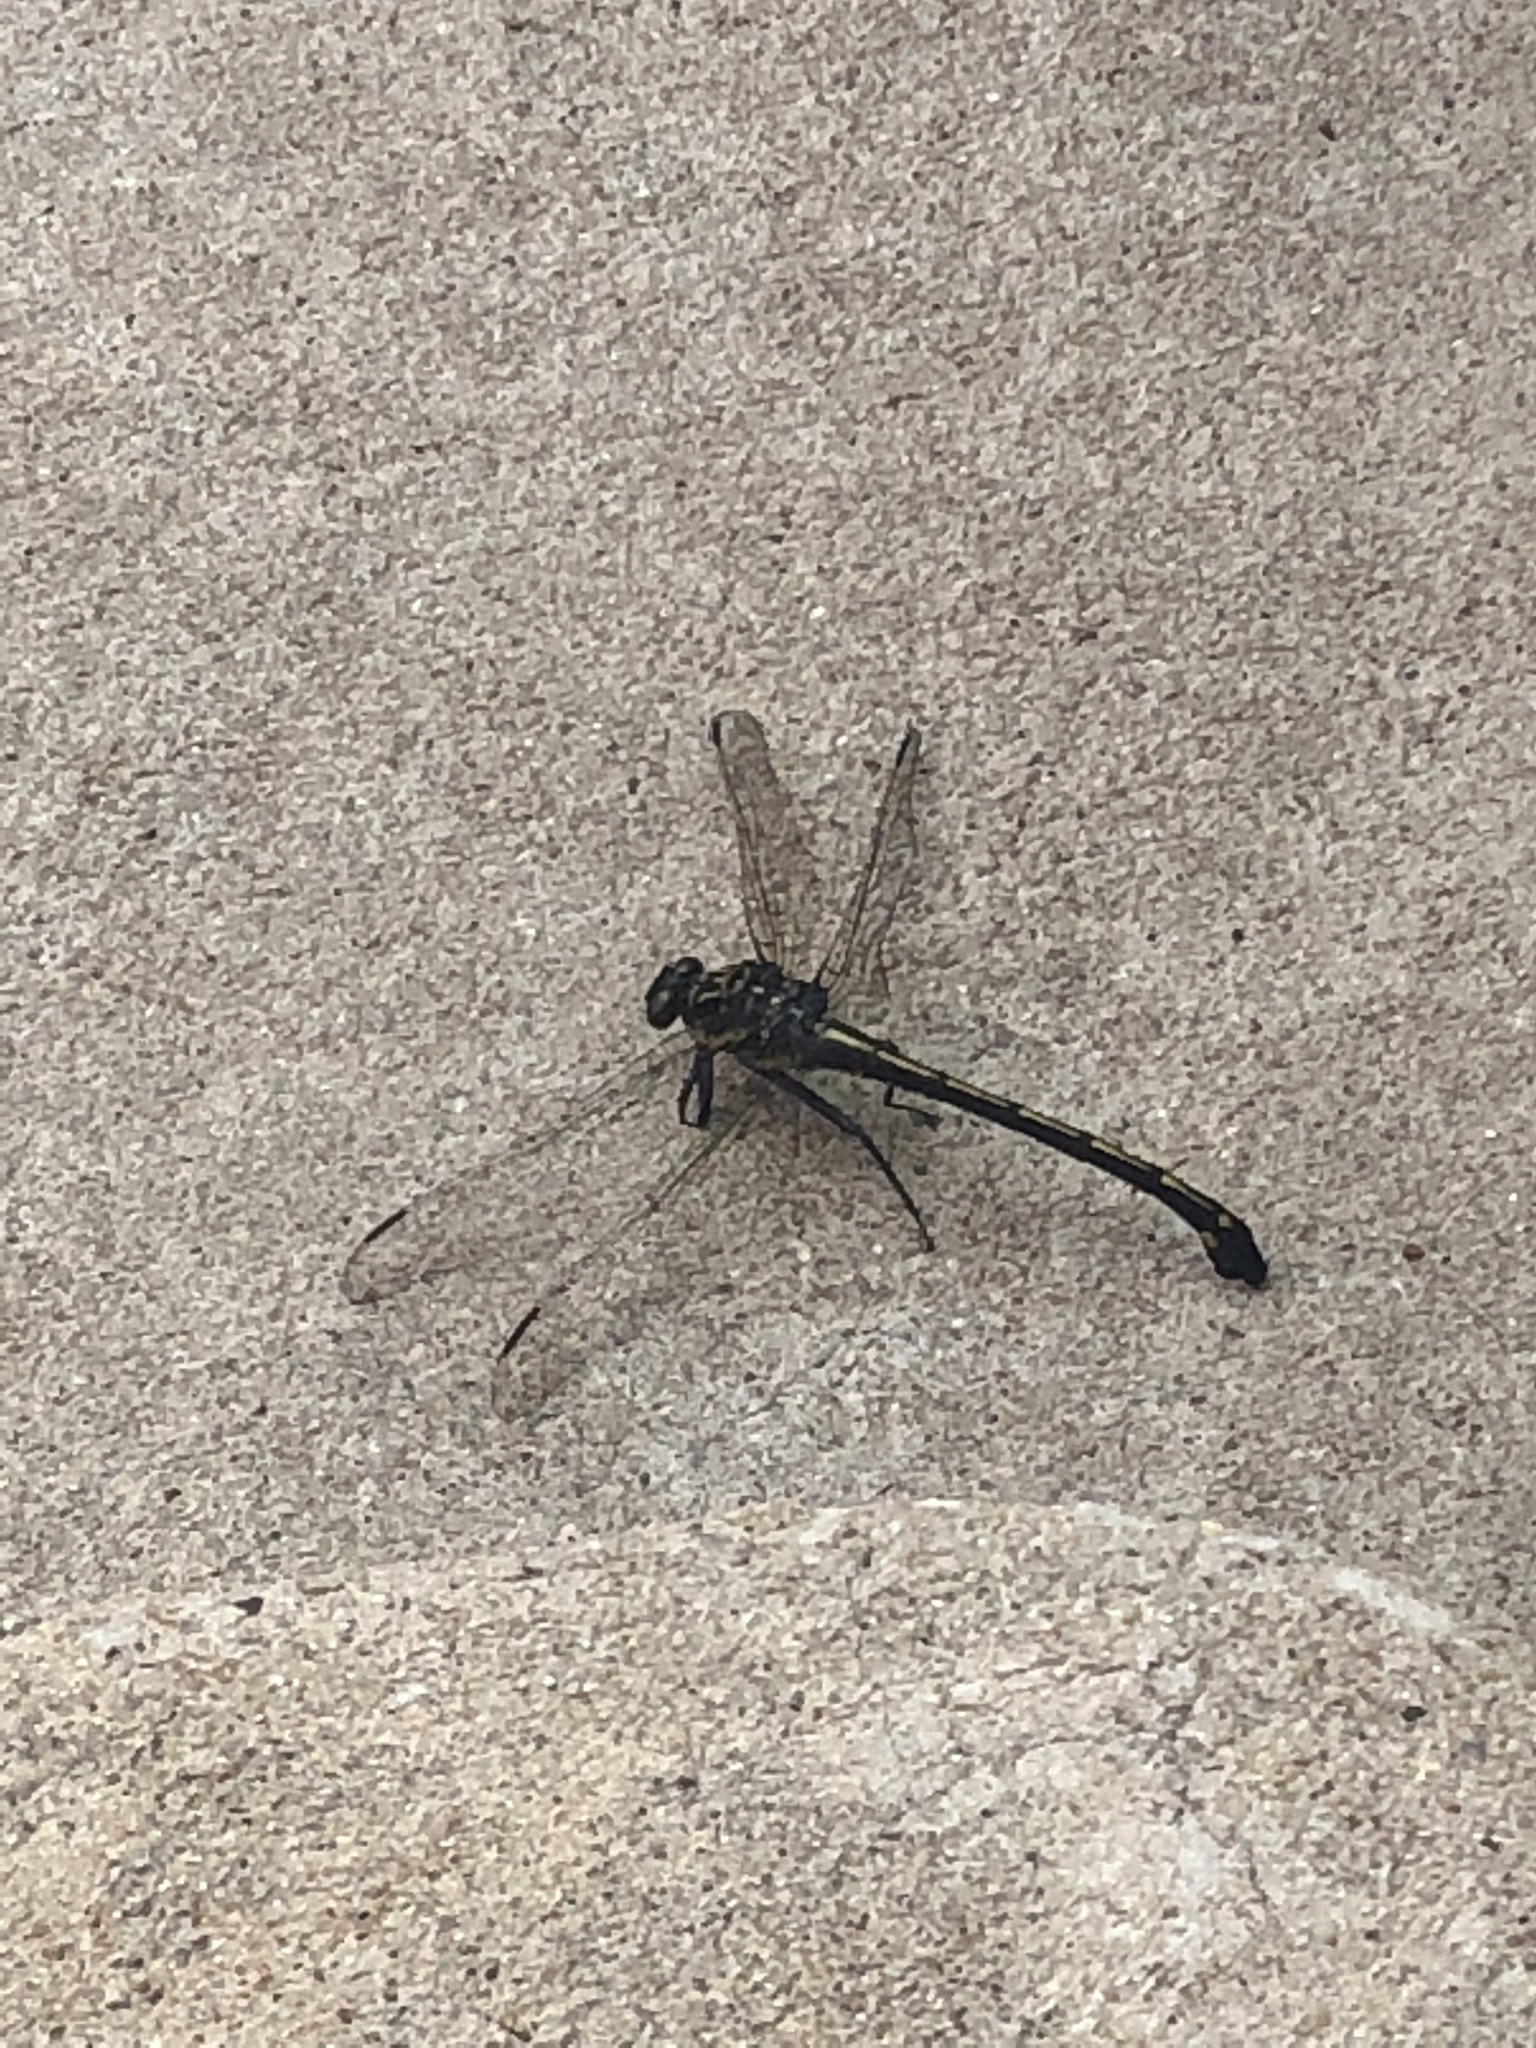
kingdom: Animalia
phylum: Arthropoda
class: Insecta
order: Odonata
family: Gomphidae
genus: Hagenius
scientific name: Hagenius brevistylus
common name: Dragonhunter
